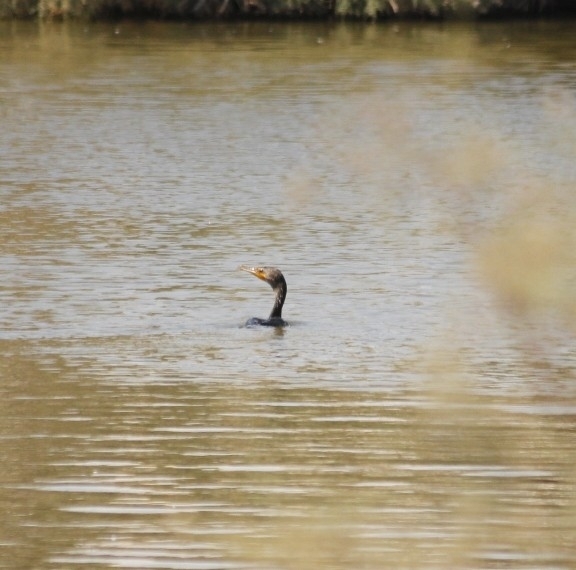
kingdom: Animalia
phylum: Chordata
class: Aves
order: Suliformes
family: Phalacrocoracidae
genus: Phalacrocorax
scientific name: Phalacrocorax auritus
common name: Double-crested cormorant
